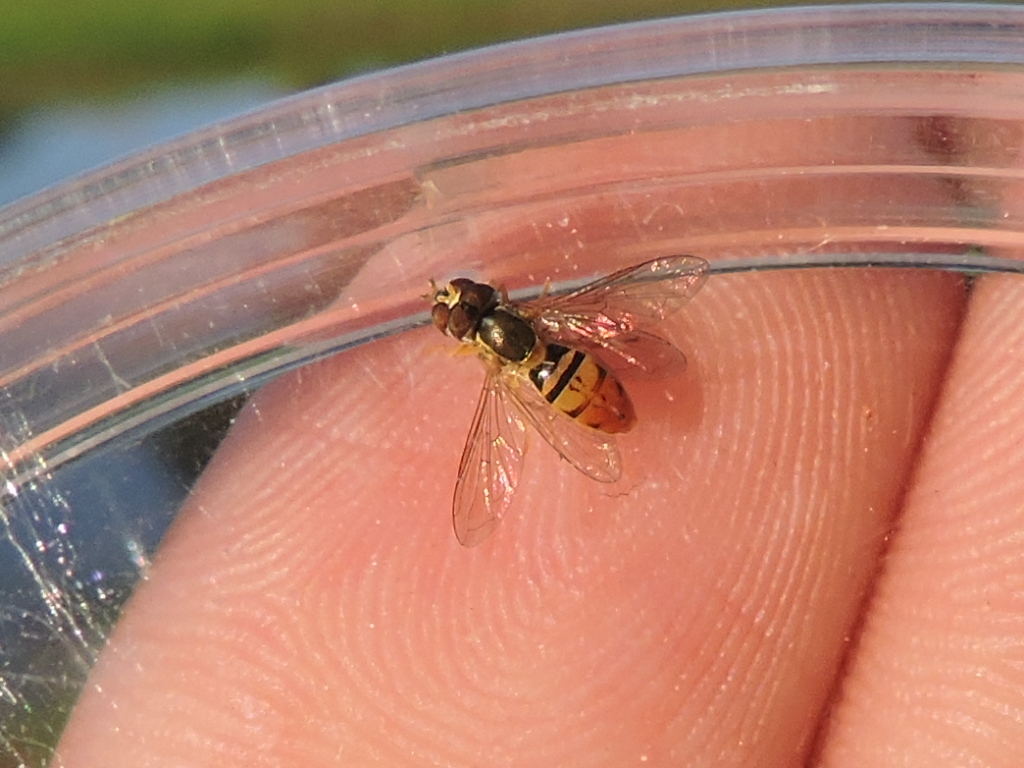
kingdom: Animalia
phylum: Arthropoda
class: Insecta
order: Diptera
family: Syrphidae
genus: Toxomerus
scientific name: Toxomerus marginatus
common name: Syrphid fly
